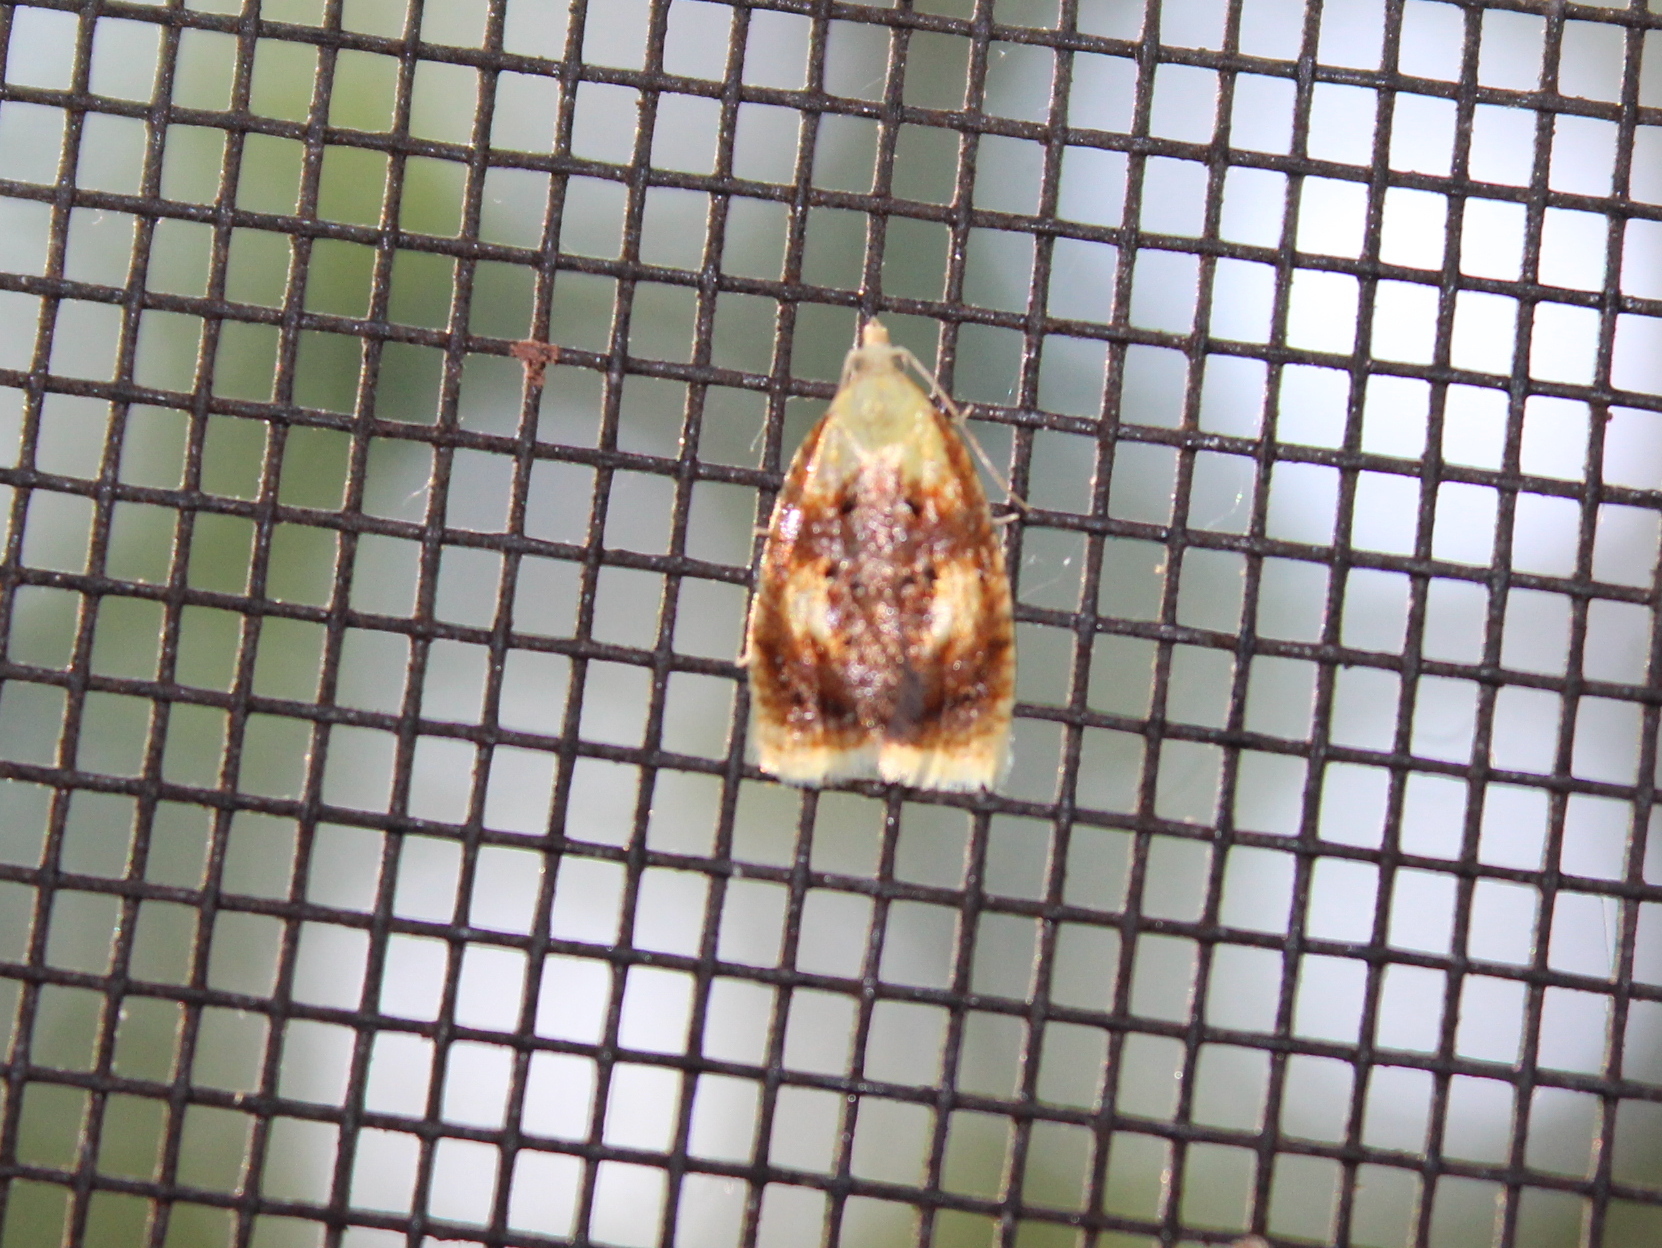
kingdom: Animalia
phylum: Arthropoda
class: Insecta
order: Lepidoptera
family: Tortricidae
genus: Acleris
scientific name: Acleris curvalana
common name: Blueberry leaftier moth
